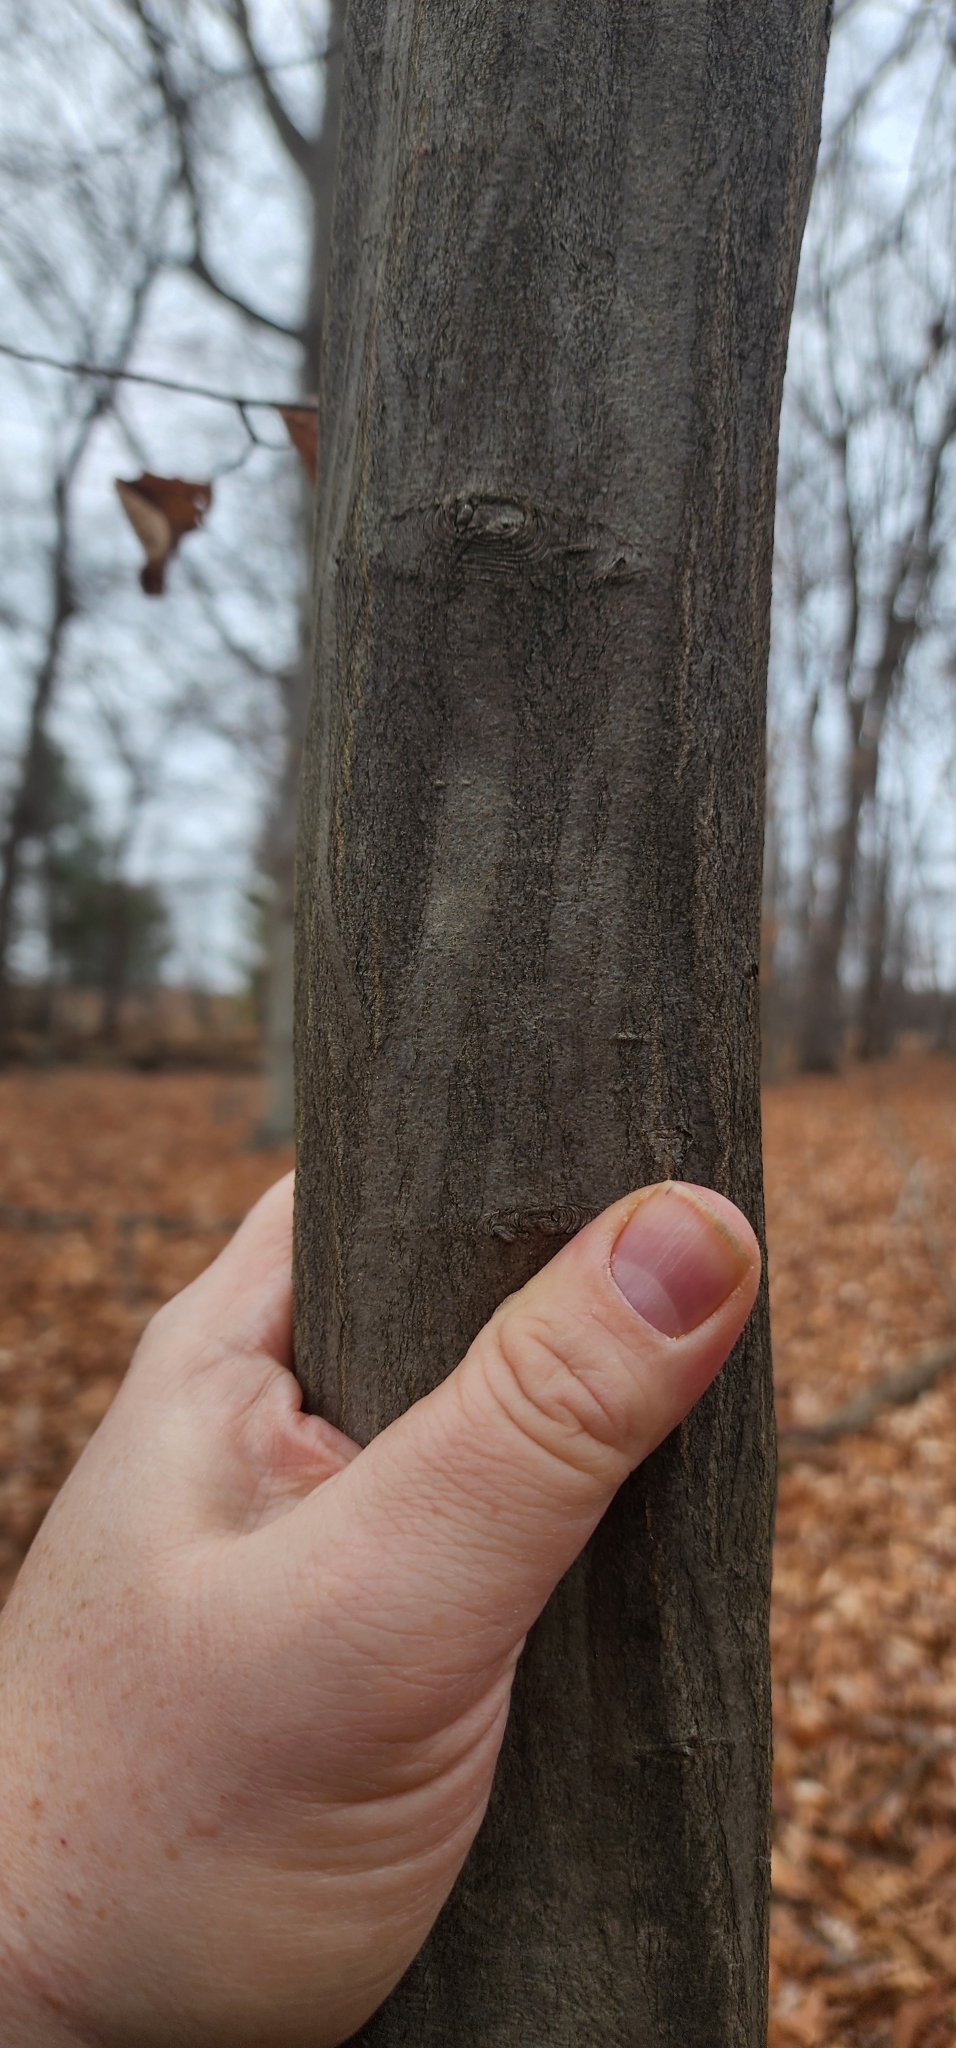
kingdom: Plantae
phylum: Tracheophyta
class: Magnoliopsida
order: Fagales
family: Betulaceae
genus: Carpinus
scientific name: Carpinus caroliniana
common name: American hornbeam
